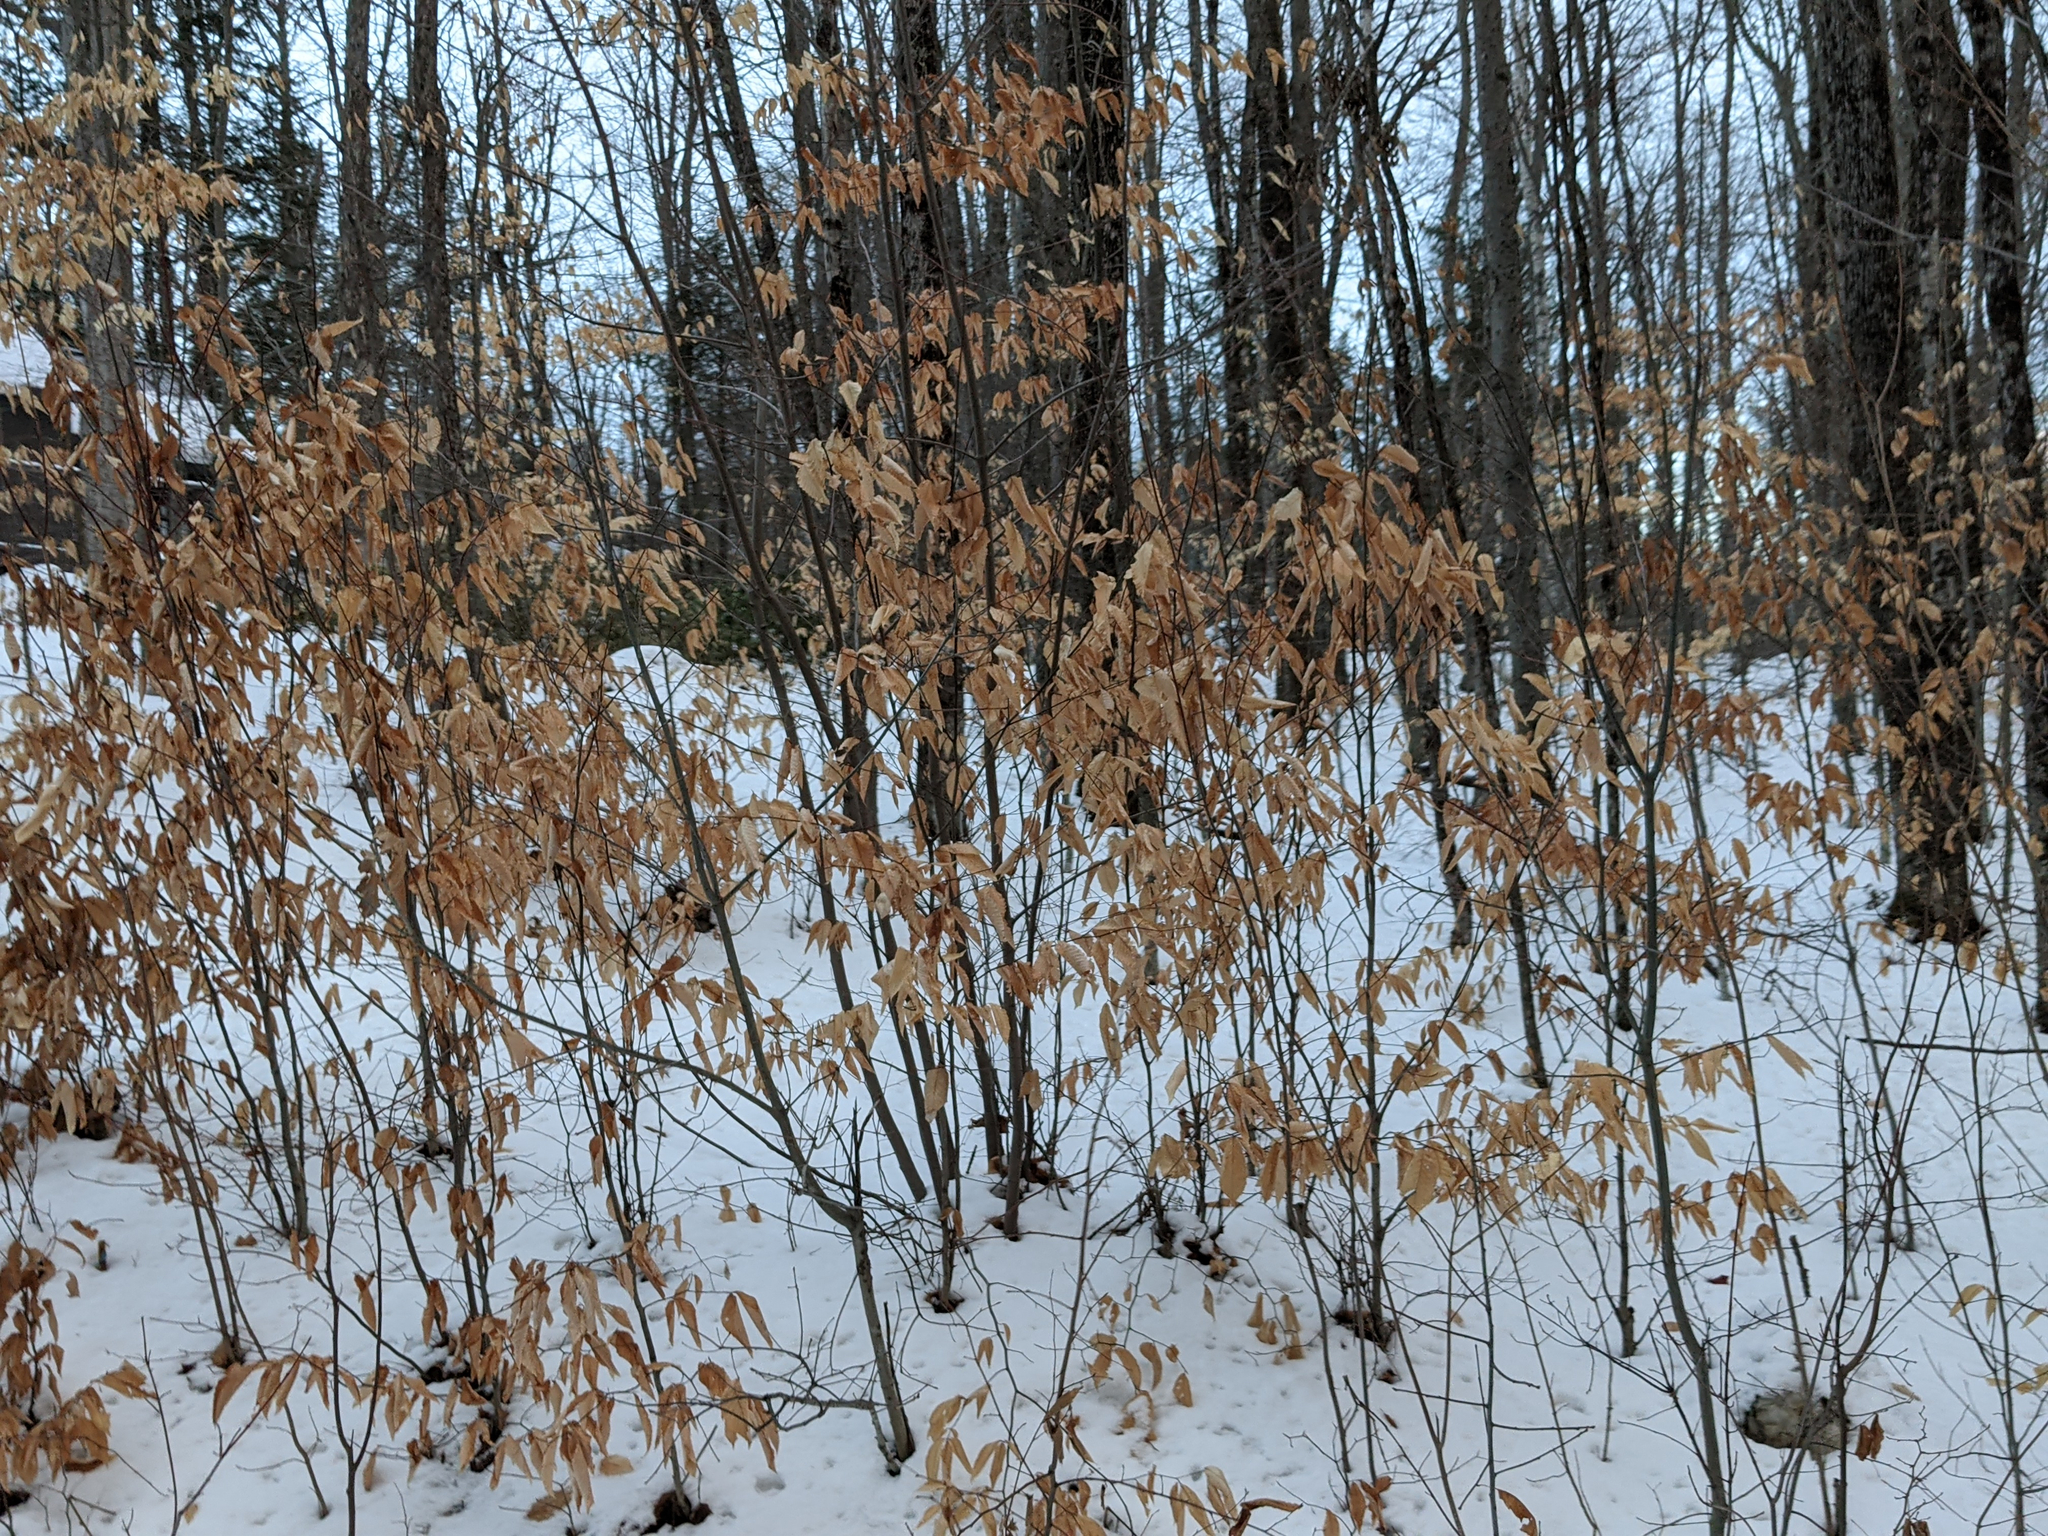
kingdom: Plantae
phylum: Tracheophyta
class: Magnoliopsida
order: Fagales
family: Fagaceae
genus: Fagus
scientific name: Fagus grandifolia
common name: American beech
